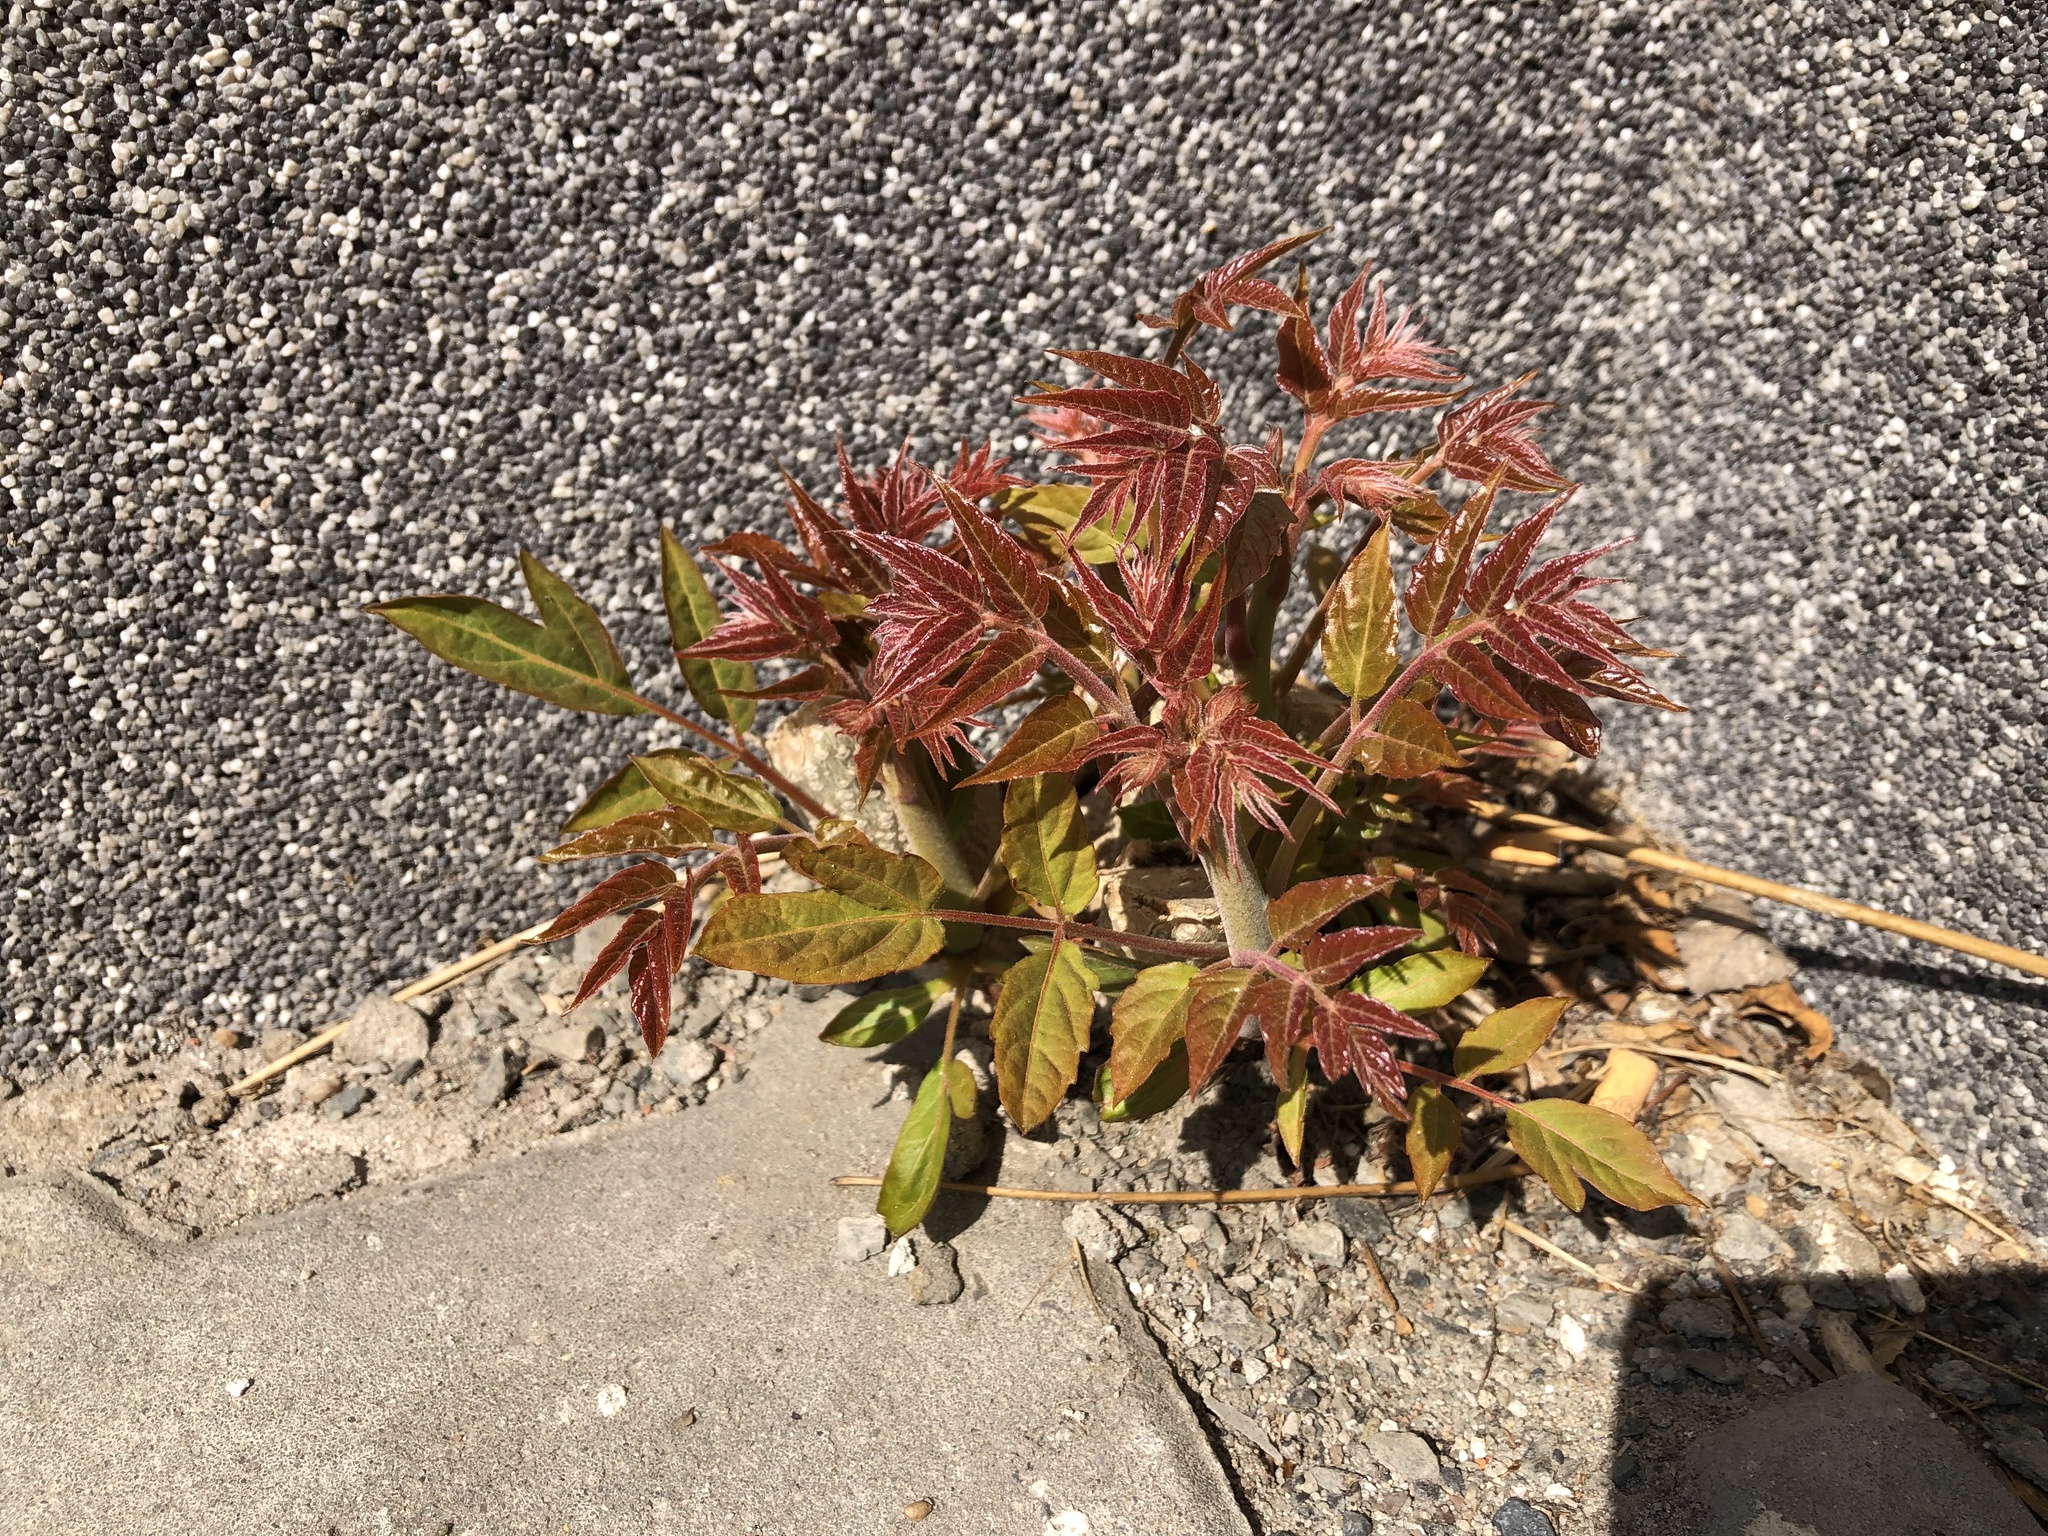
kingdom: Plantae
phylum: Tracheophyta
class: Magnoliopsida
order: Sapindales
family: Simaroubaceae
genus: Ailanthus
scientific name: Ailanthus altissima
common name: Tree-of-heaven
